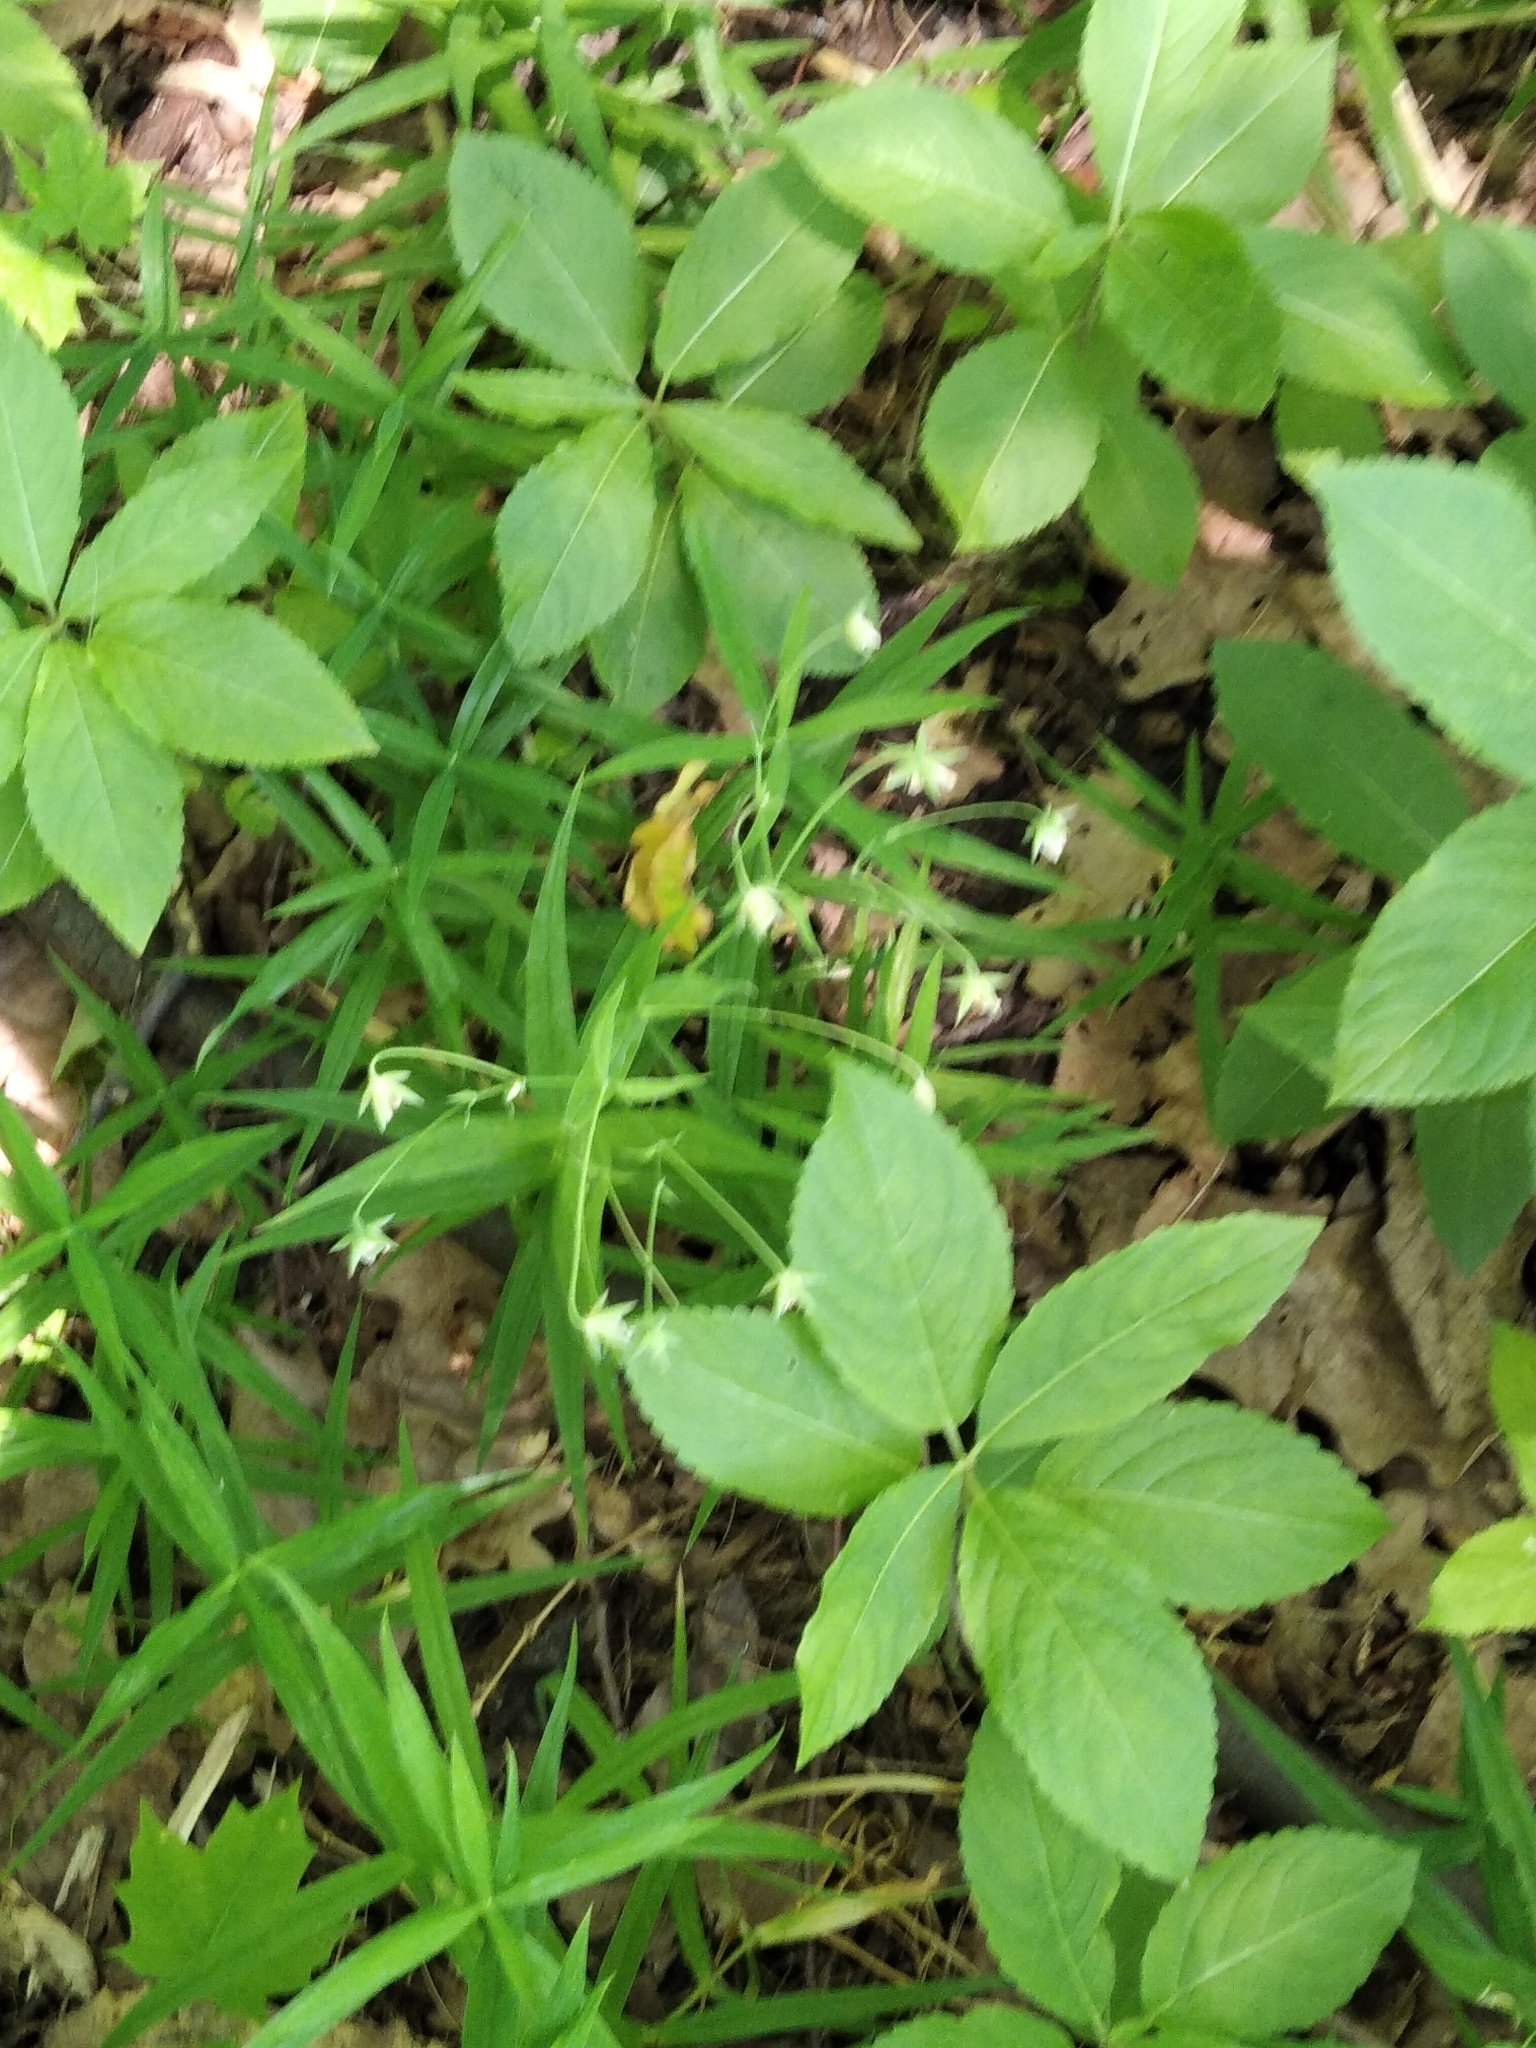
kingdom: Plantae
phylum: Tracheophyta
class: Magnoliopsida
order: Caryophyllales
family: Caryophyllaceae
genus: Rabelera
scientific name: Rabelera holostea
